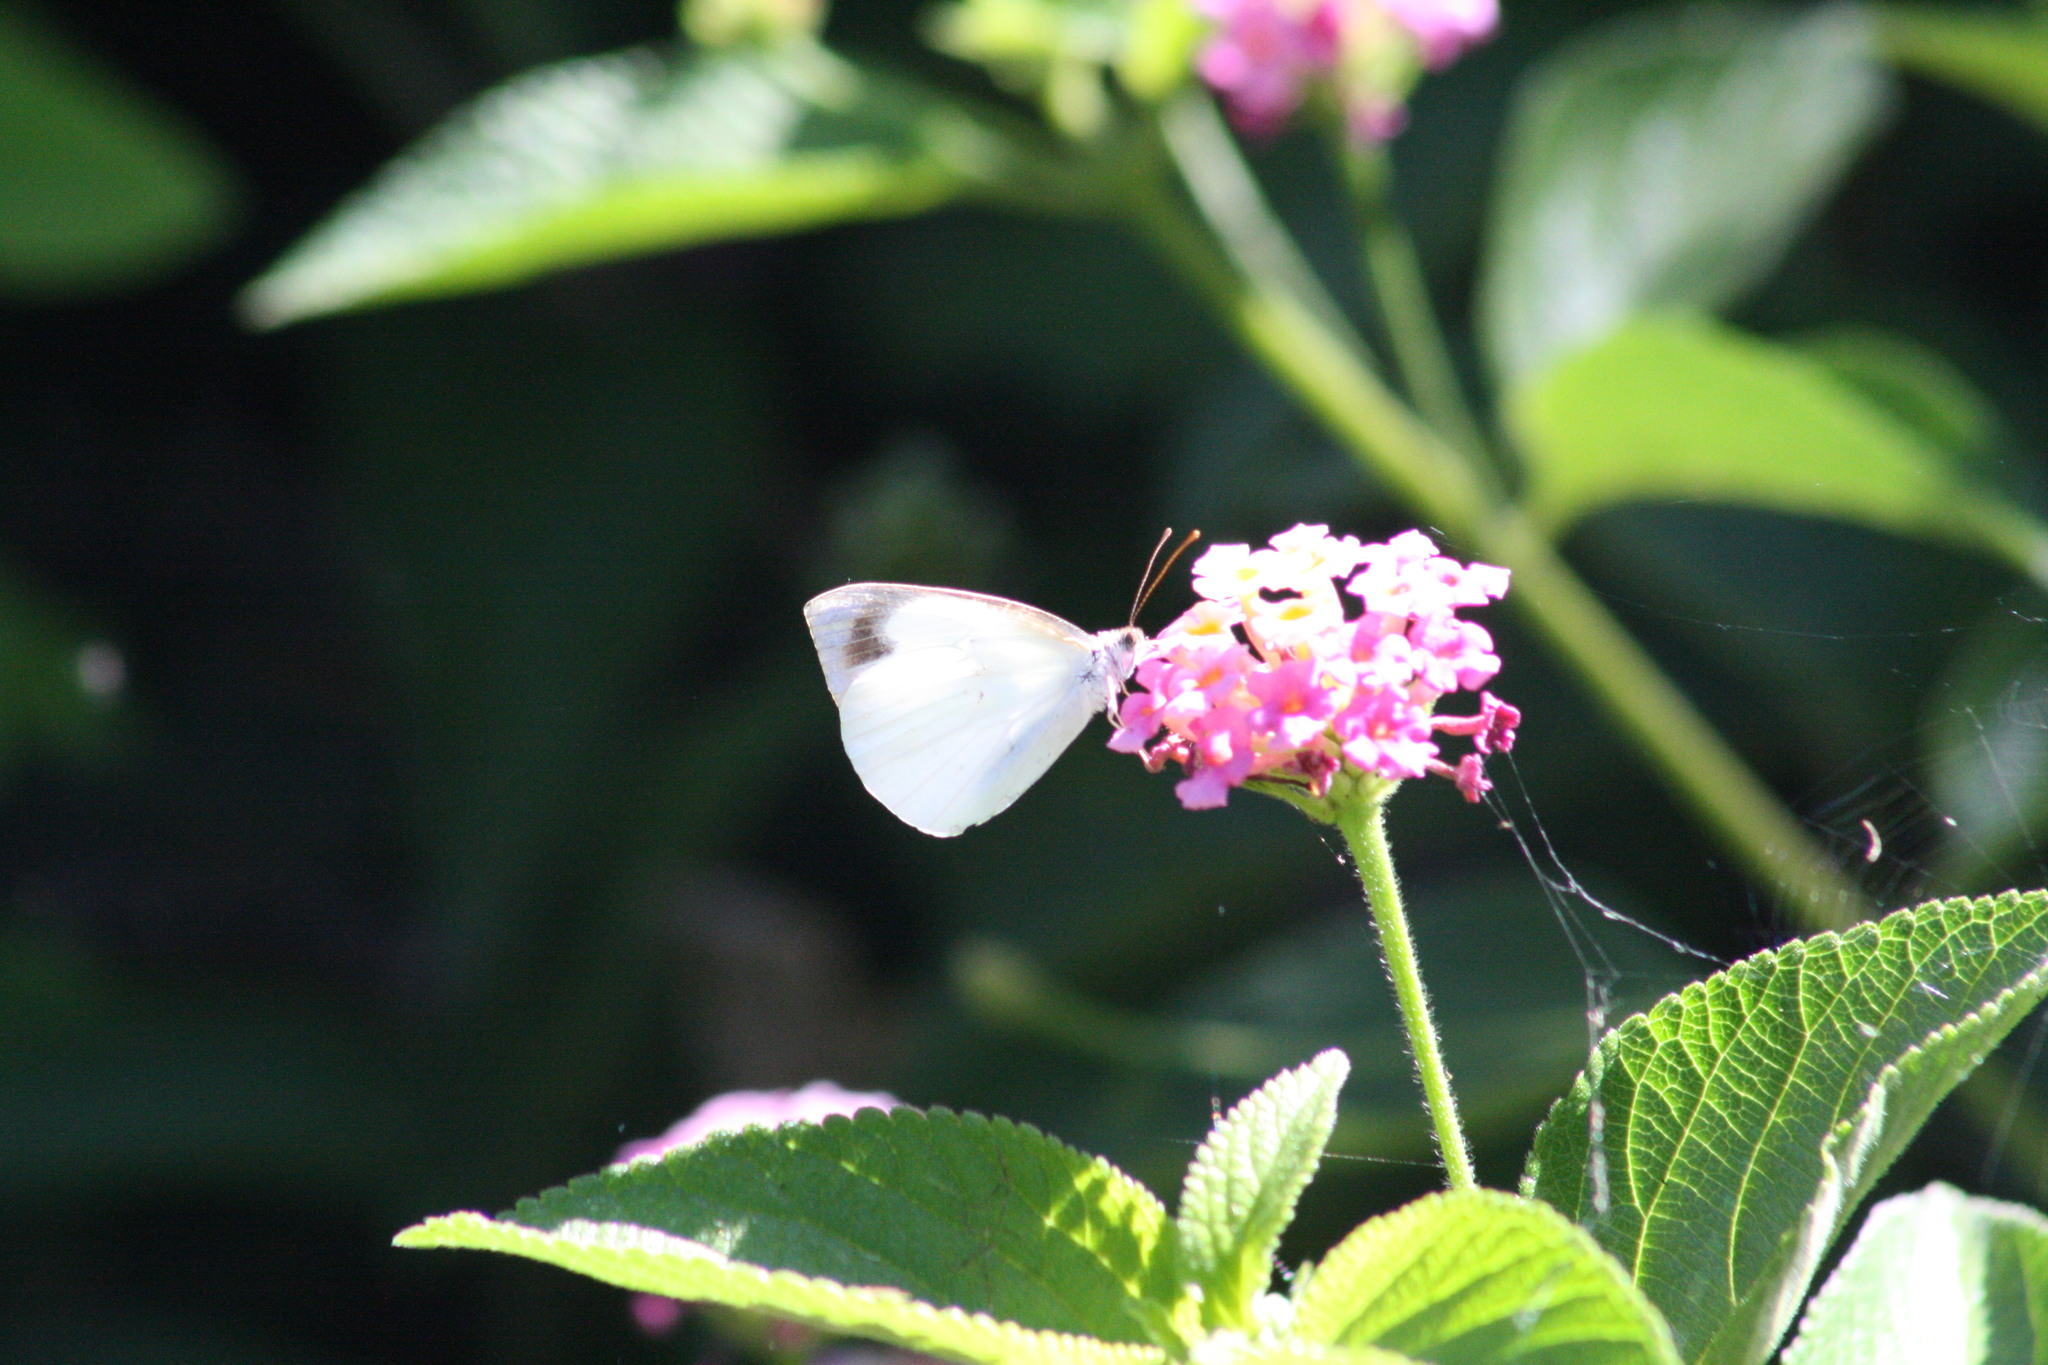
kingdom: Animalia
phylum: Arthropoda
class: Insecta
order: Lepidoptera
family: Pieridae
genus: Elodina
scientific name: Elodina angulipennis
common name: Common pearl white
